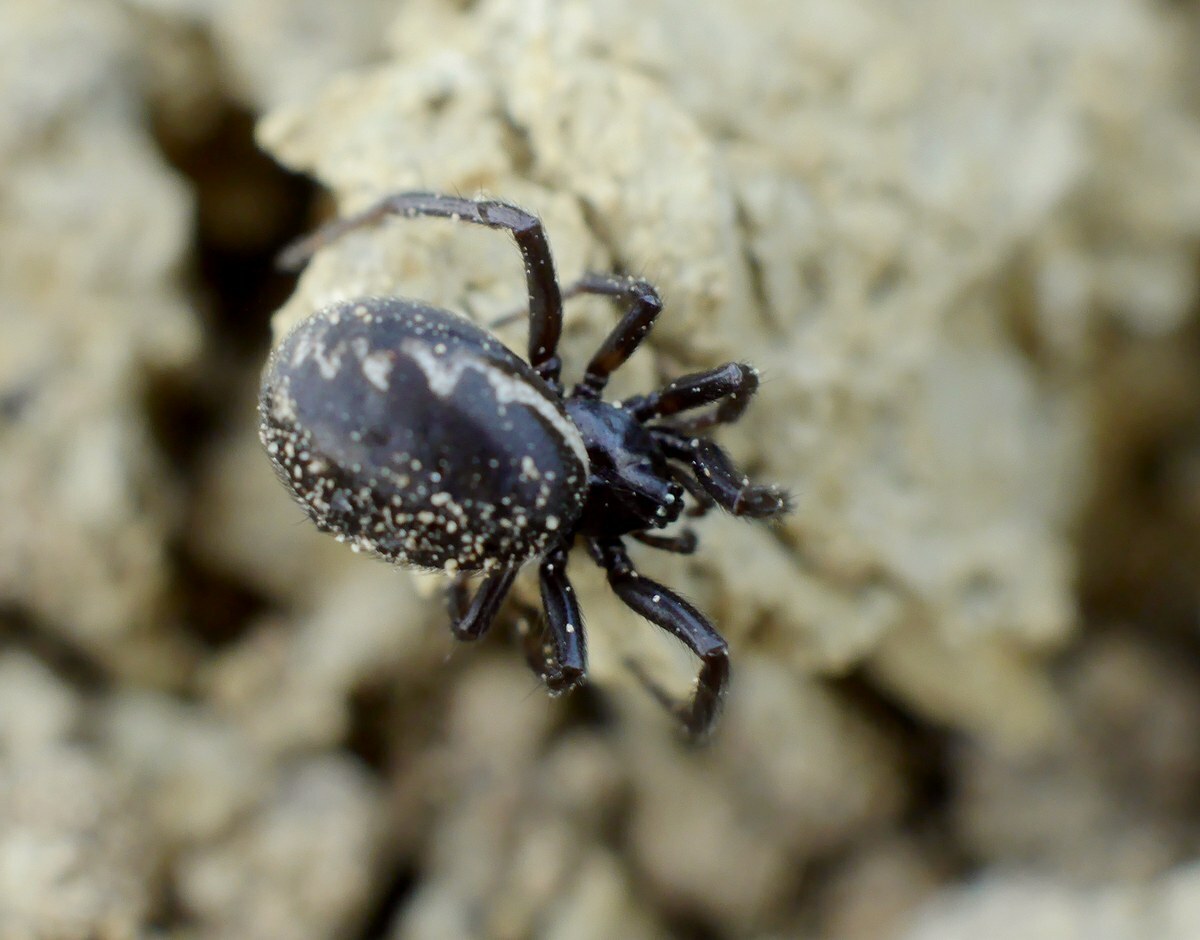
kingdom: Animalia
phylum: Arthropoda
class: Arachnida
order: Araneae
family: Theridiidae
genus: Steatoda
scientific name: Steatoda albomaculata
